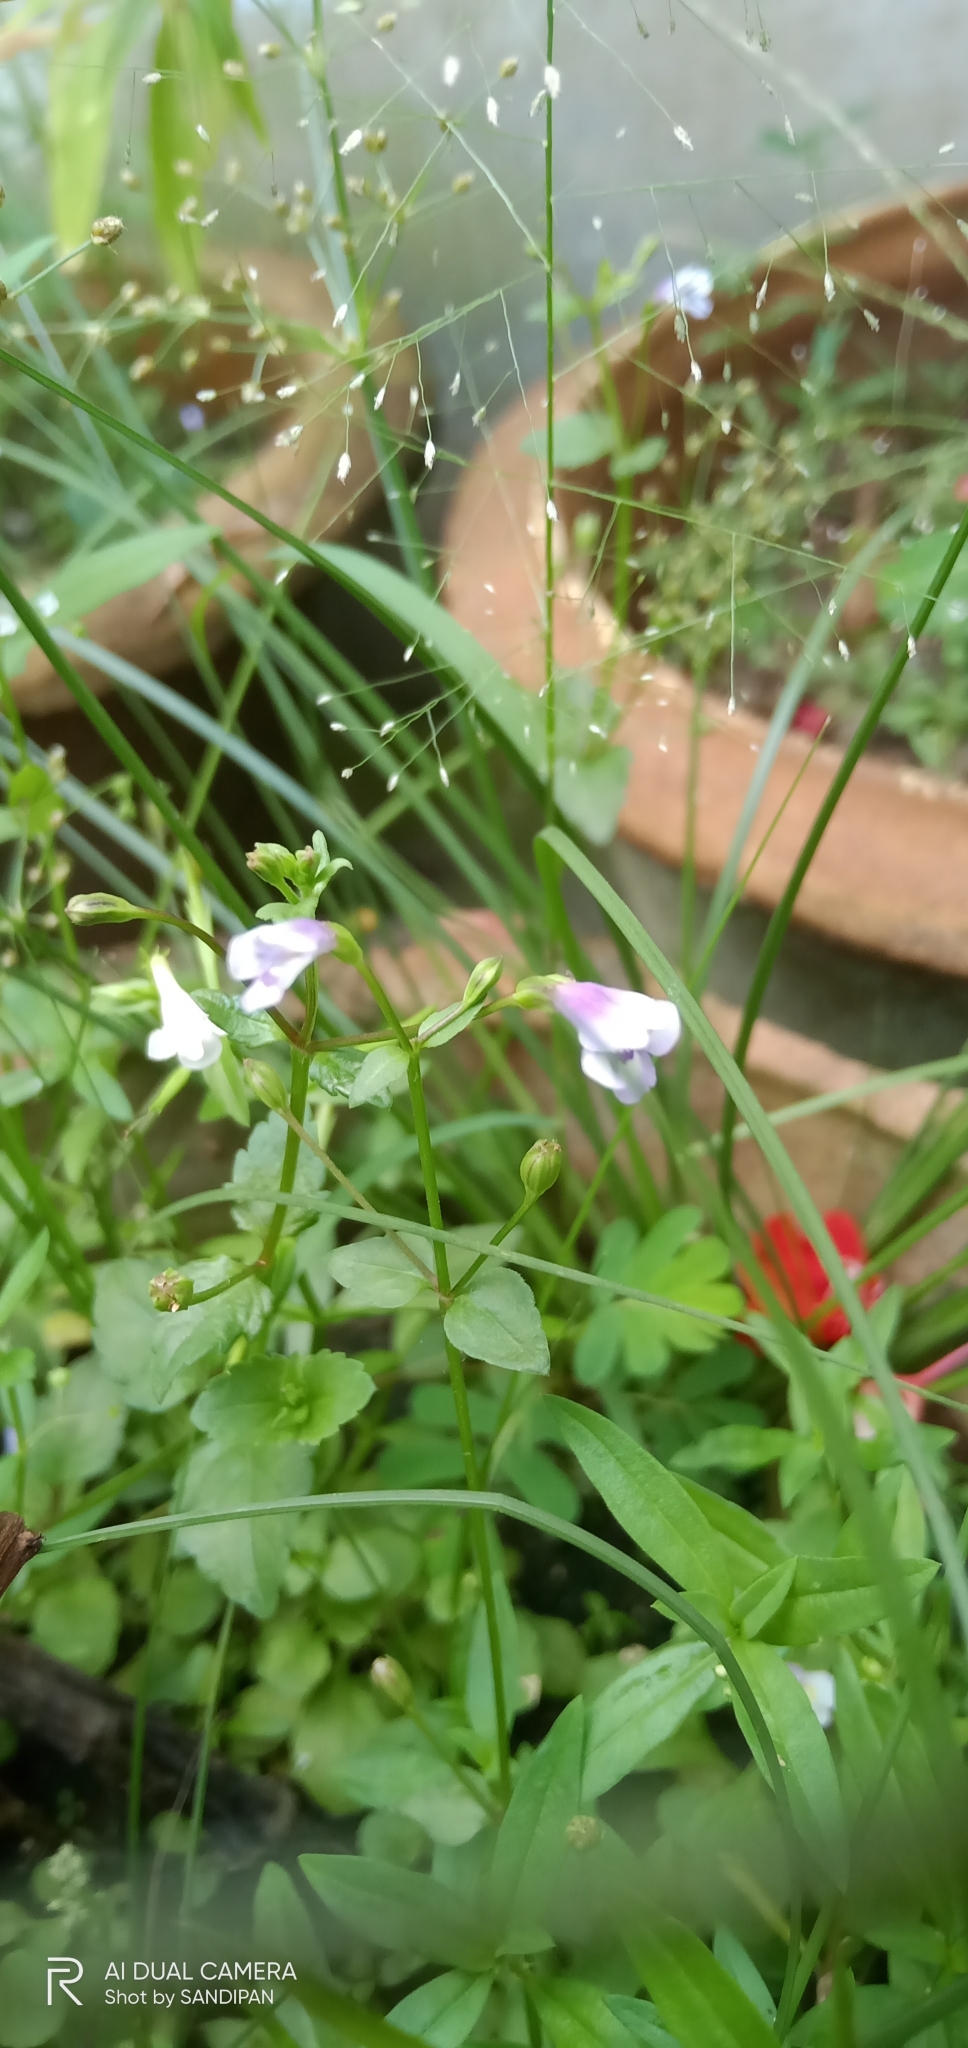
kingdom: Plantae
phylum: Tracheophyta
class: Magnoliopsida
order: Lamiales
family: Linderniaceae
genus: Torenia
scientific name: Torenia crustacea
